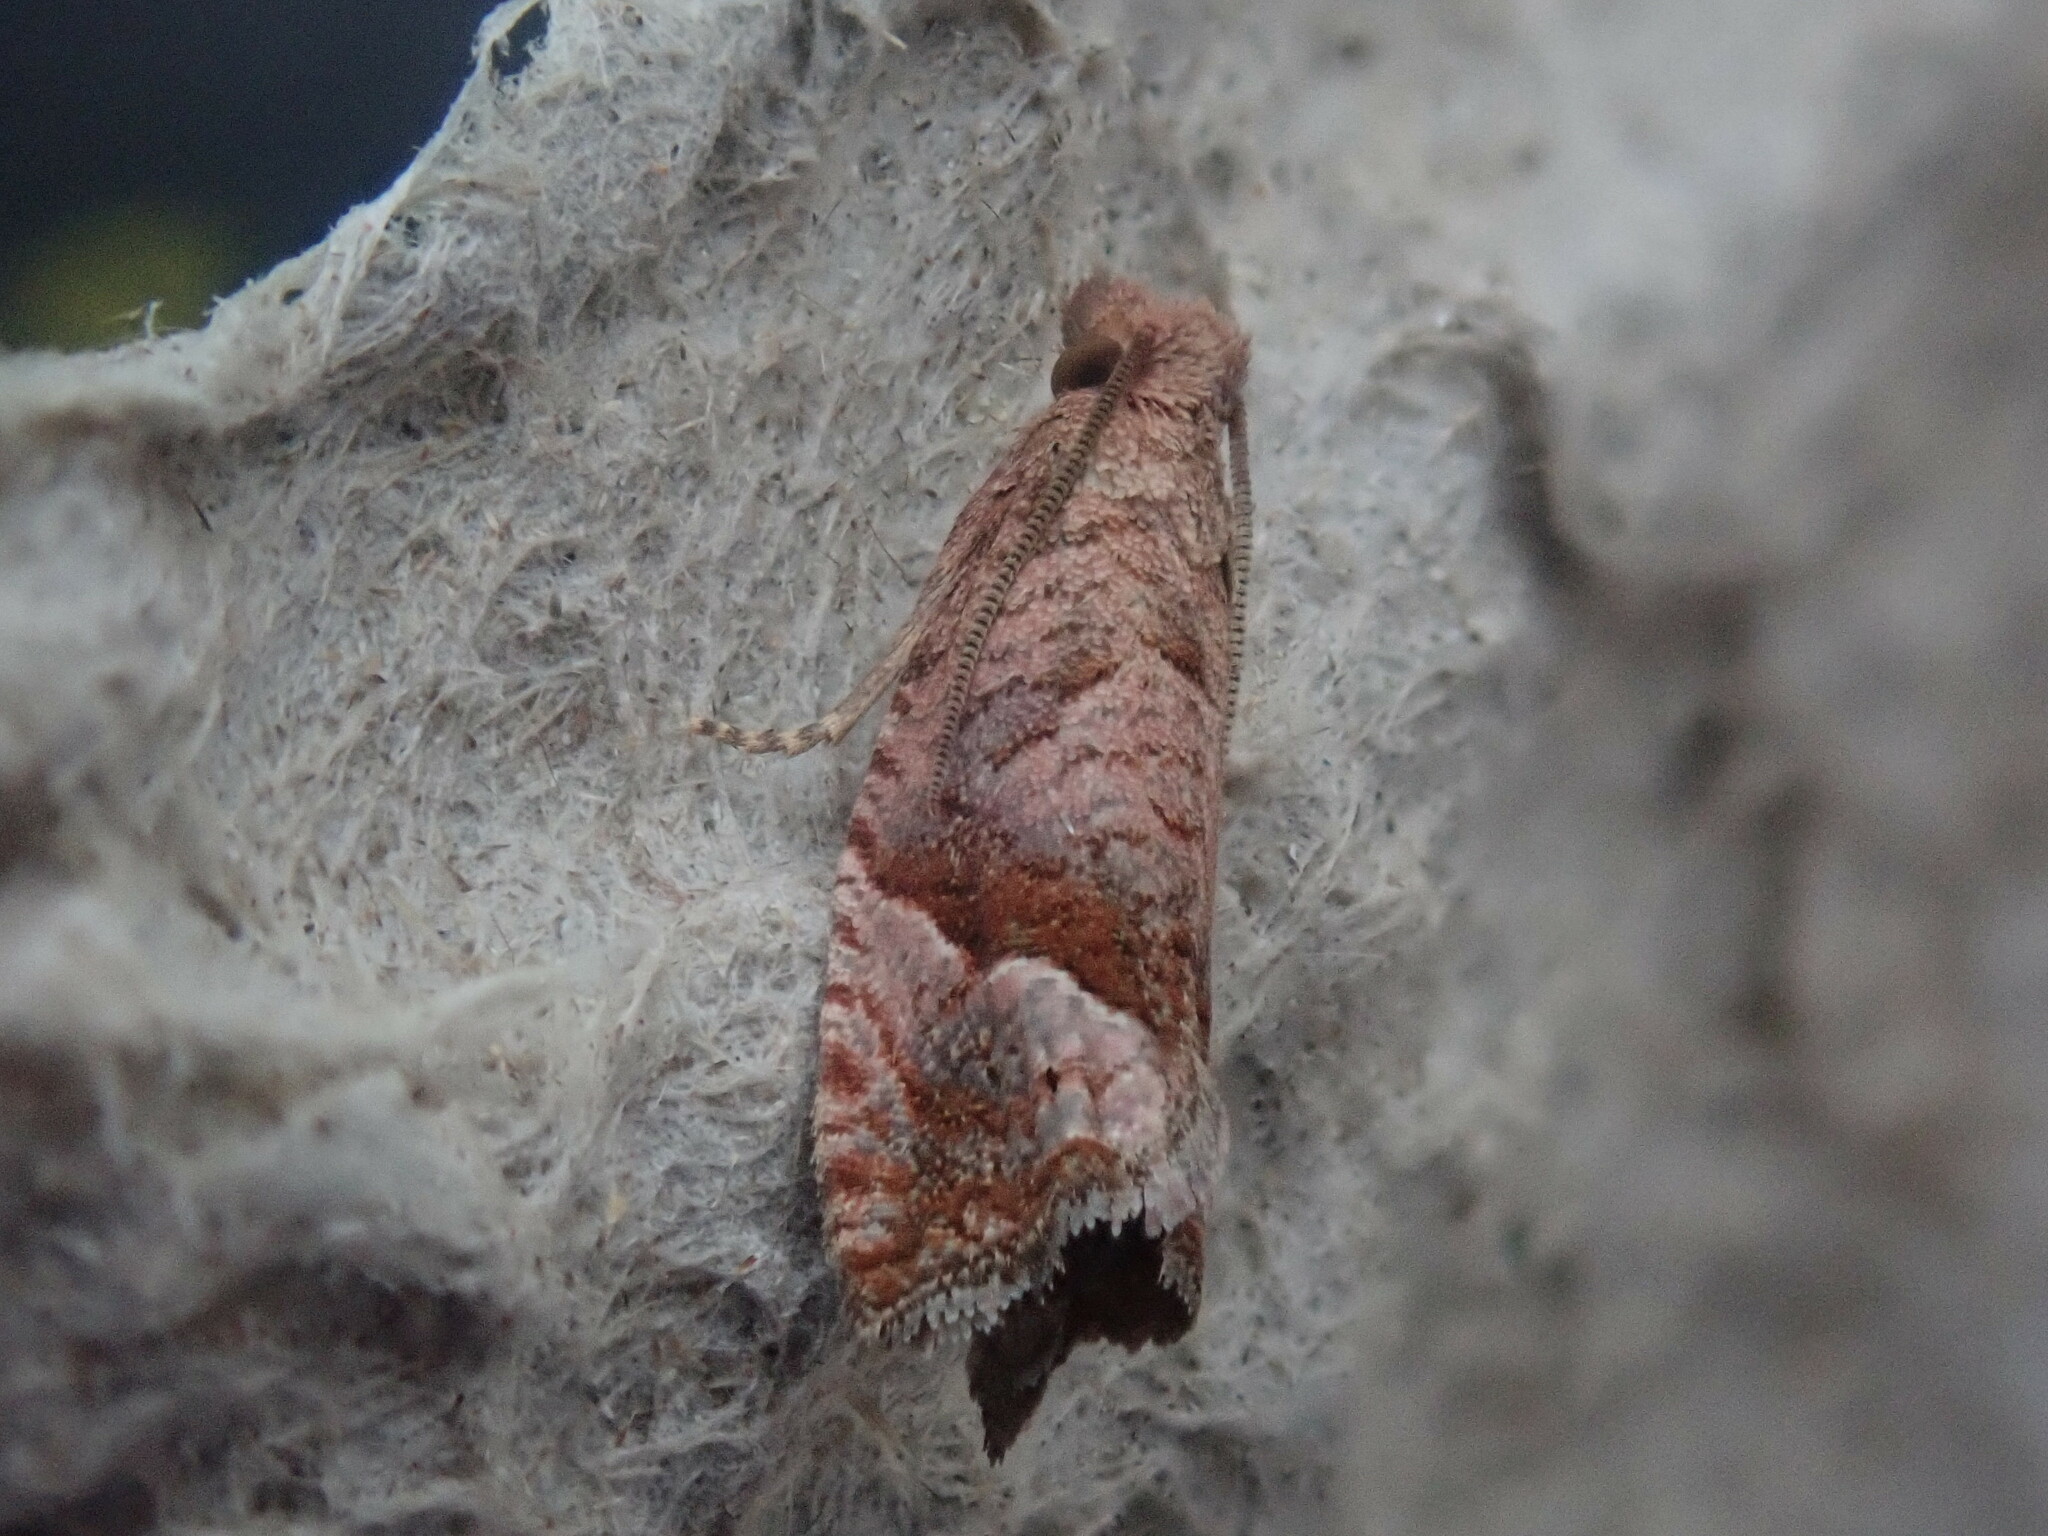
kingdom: Animalia
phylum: Arthropoda
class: Insecta
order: Lepidoptera
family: Tortricidae
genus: Pelochrista
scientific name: Pelochrista derelicta
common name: Derelict pelochrista moth
